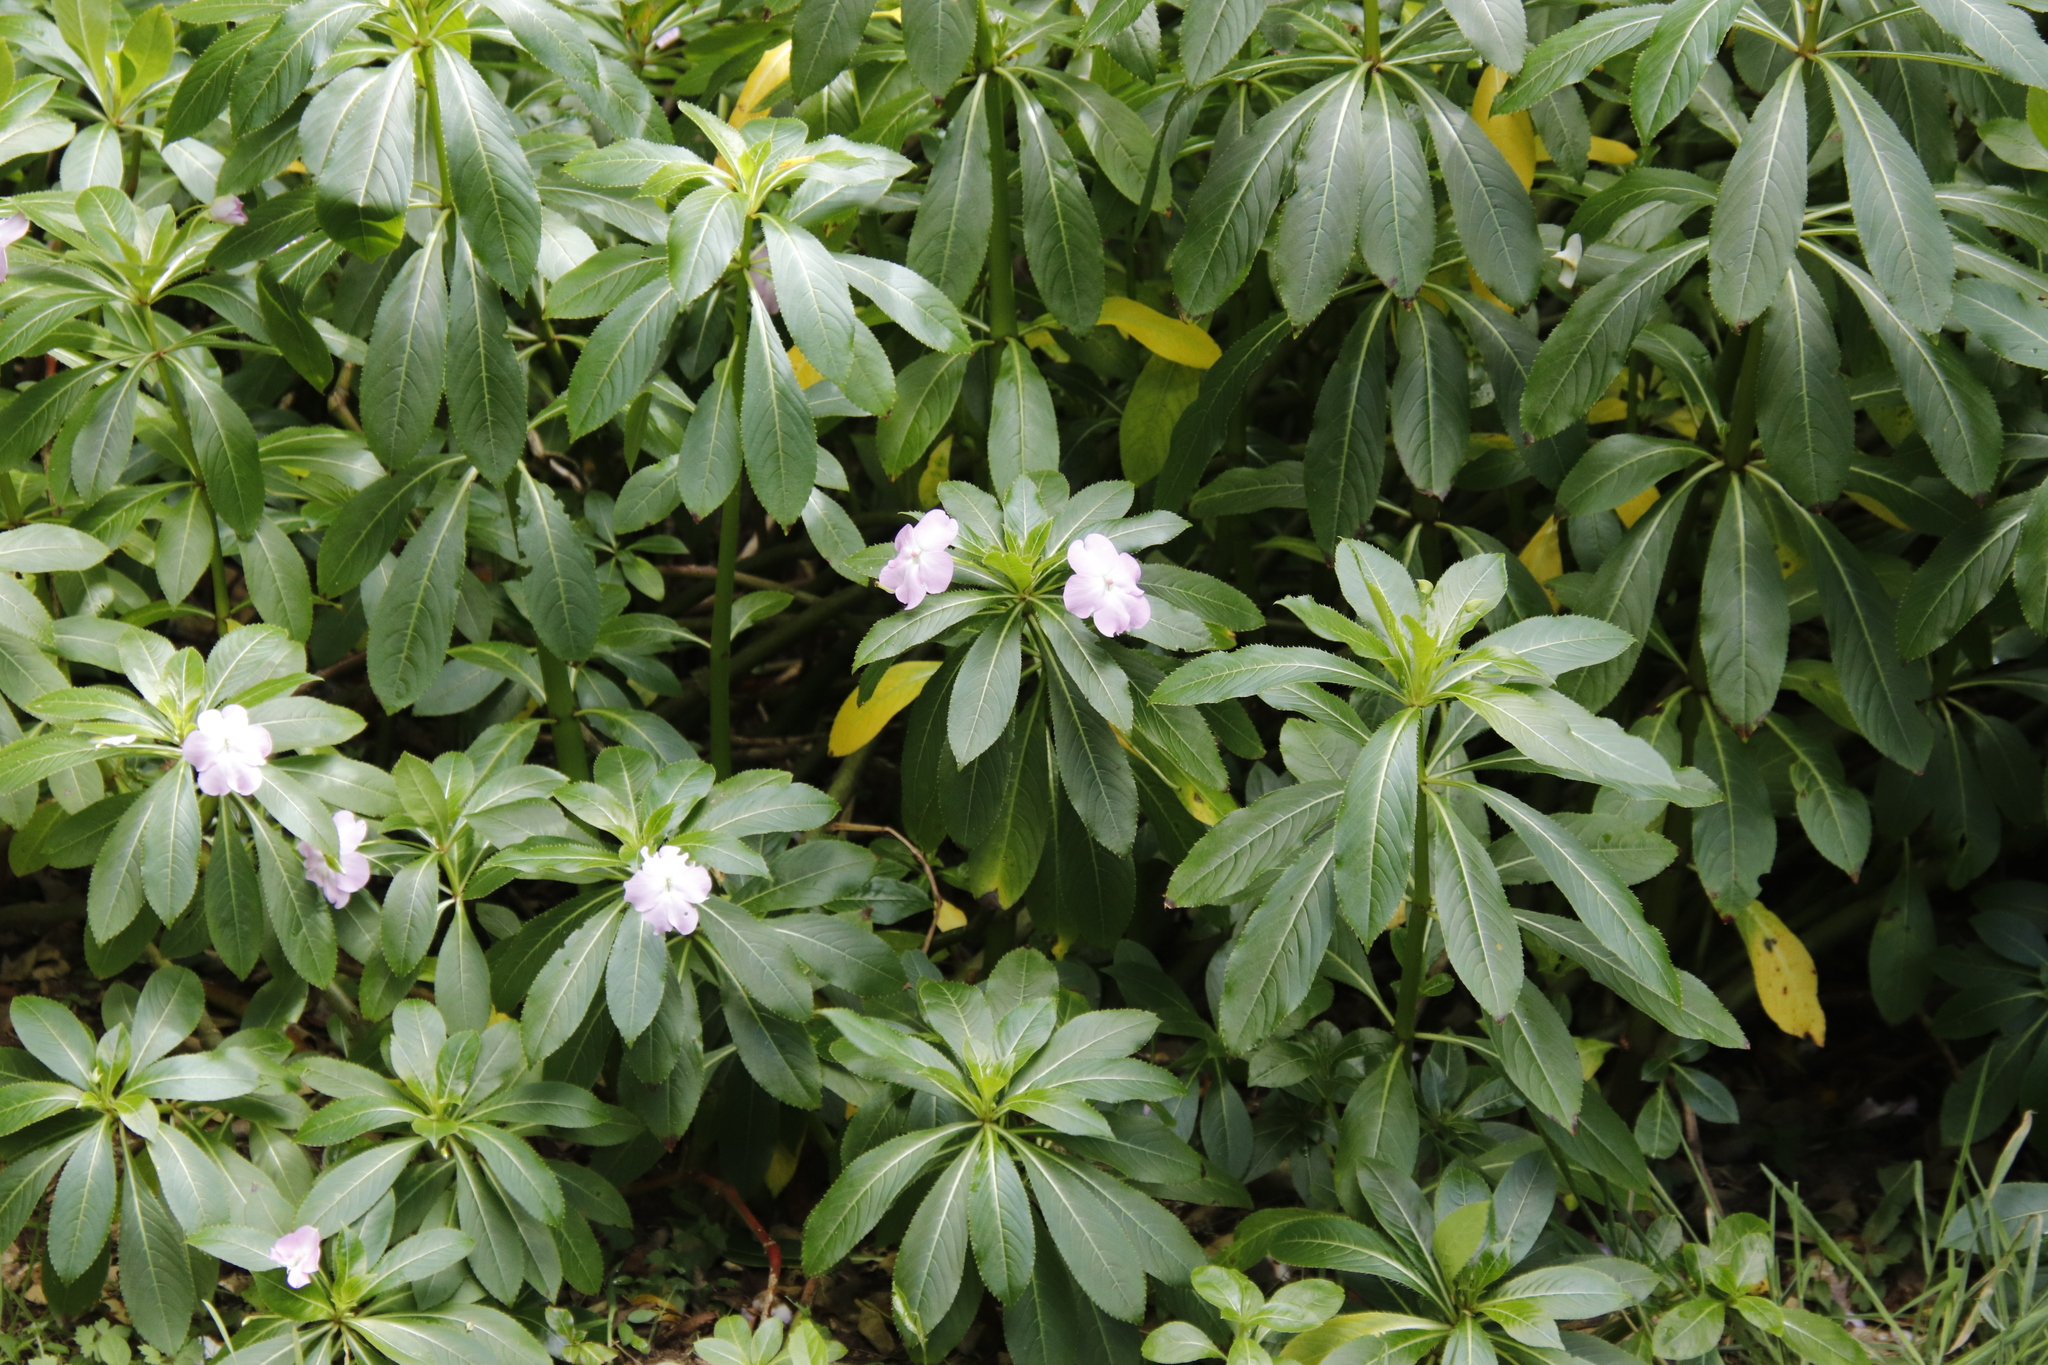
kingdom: Plantae
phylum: Tracheophyta
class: Magnoliopsida
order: Ericales
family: Balsaminaceae
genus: Impatiens
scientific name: Impatiens sodenii
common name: Oliver's touch-me-not
